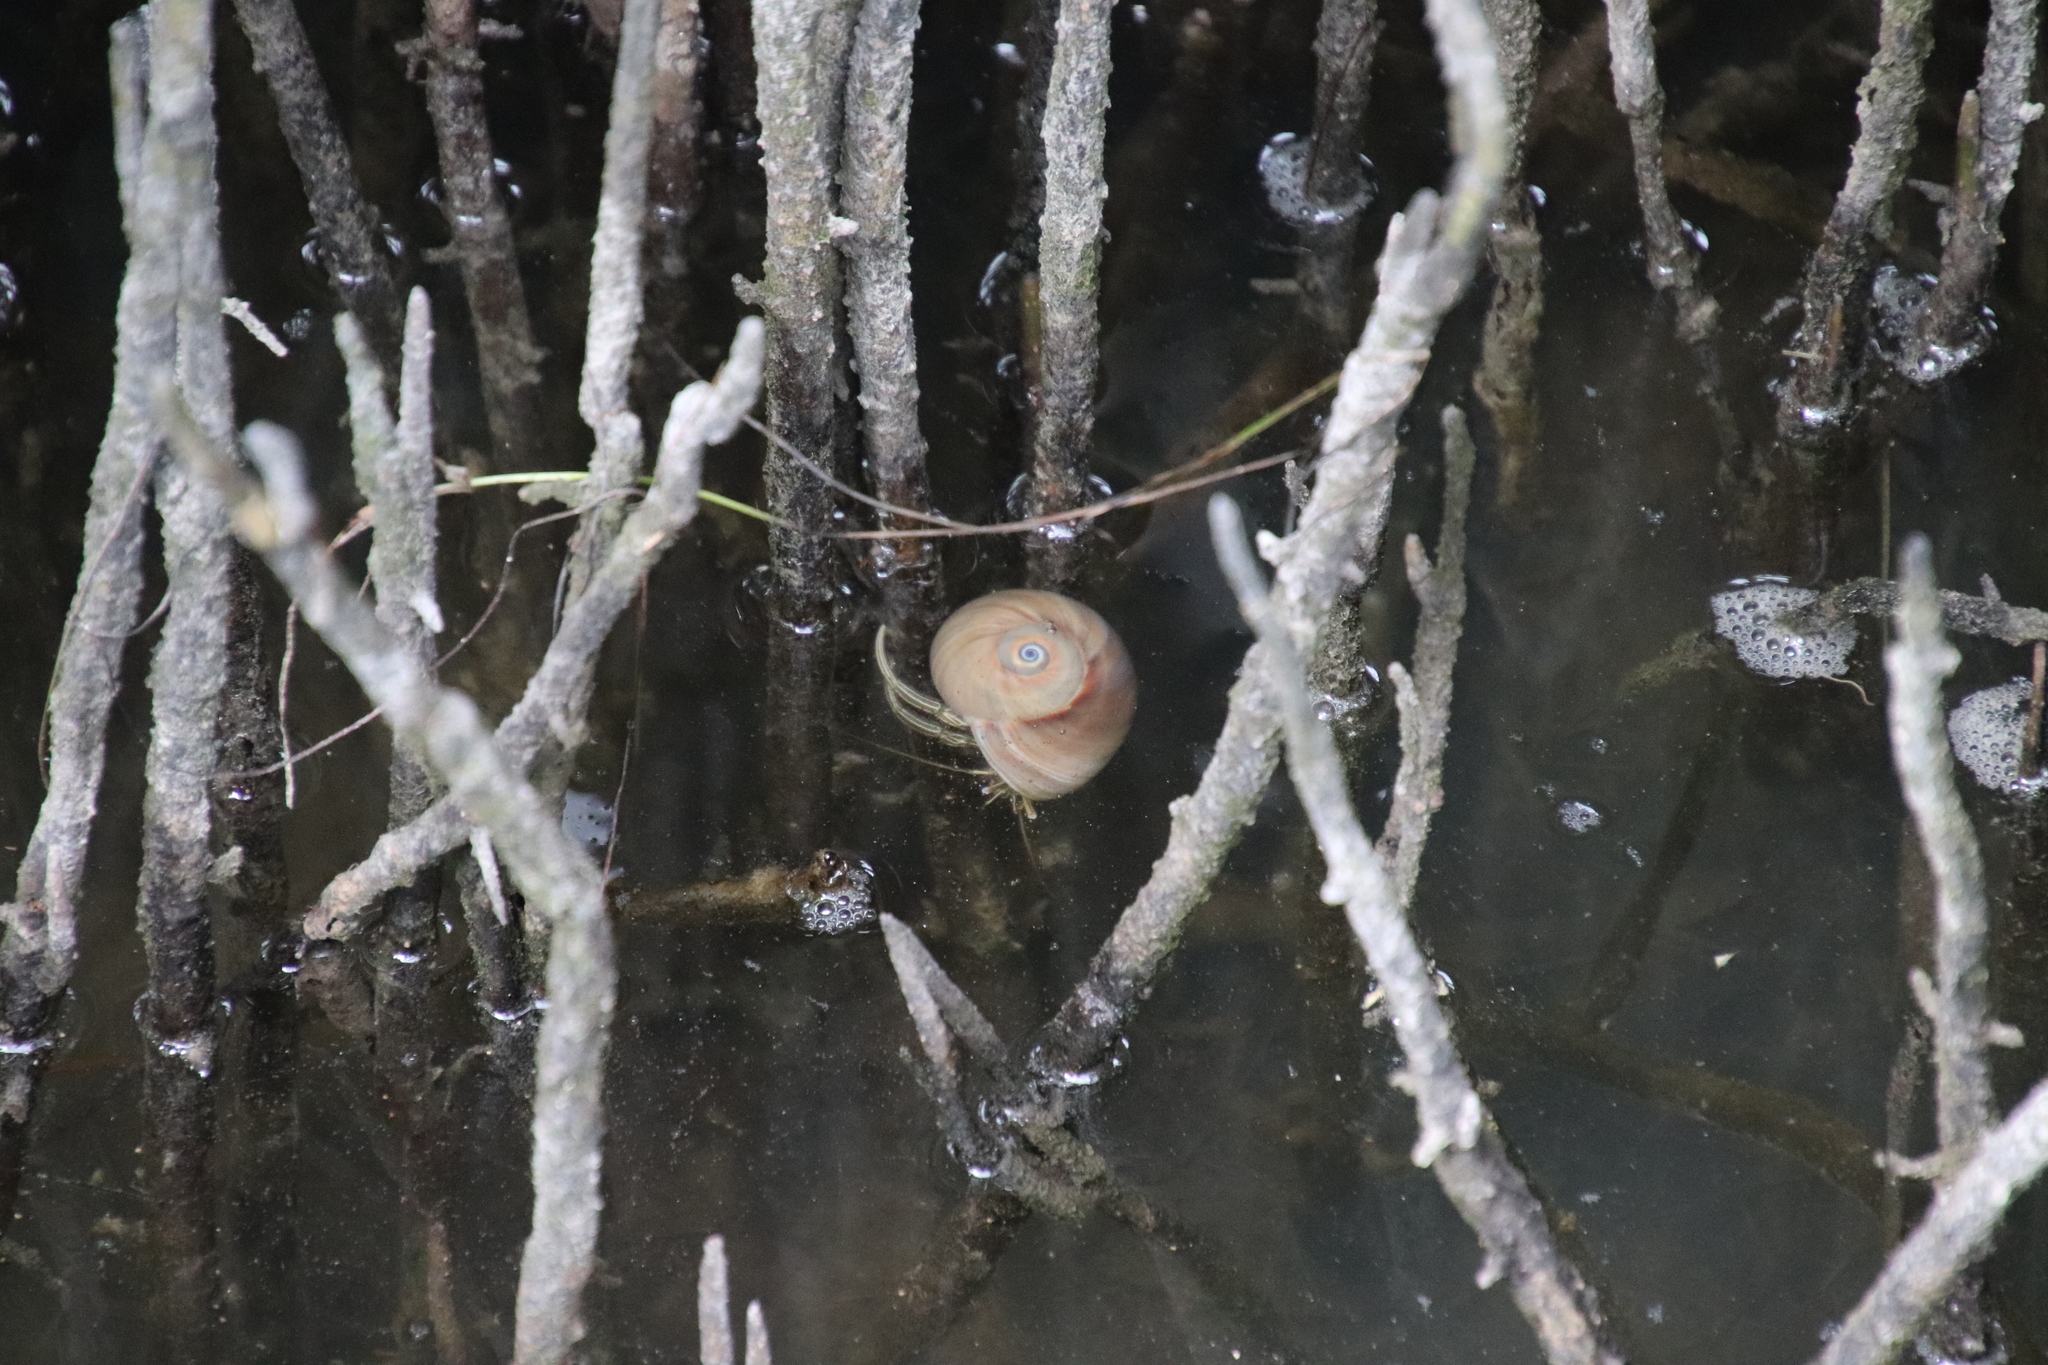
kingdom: Animalia
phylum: Arthropoda
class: Malacostraca
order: Decapoda
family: Diogenidae
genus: Clibanarius
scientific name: Clibanarius vittatus
